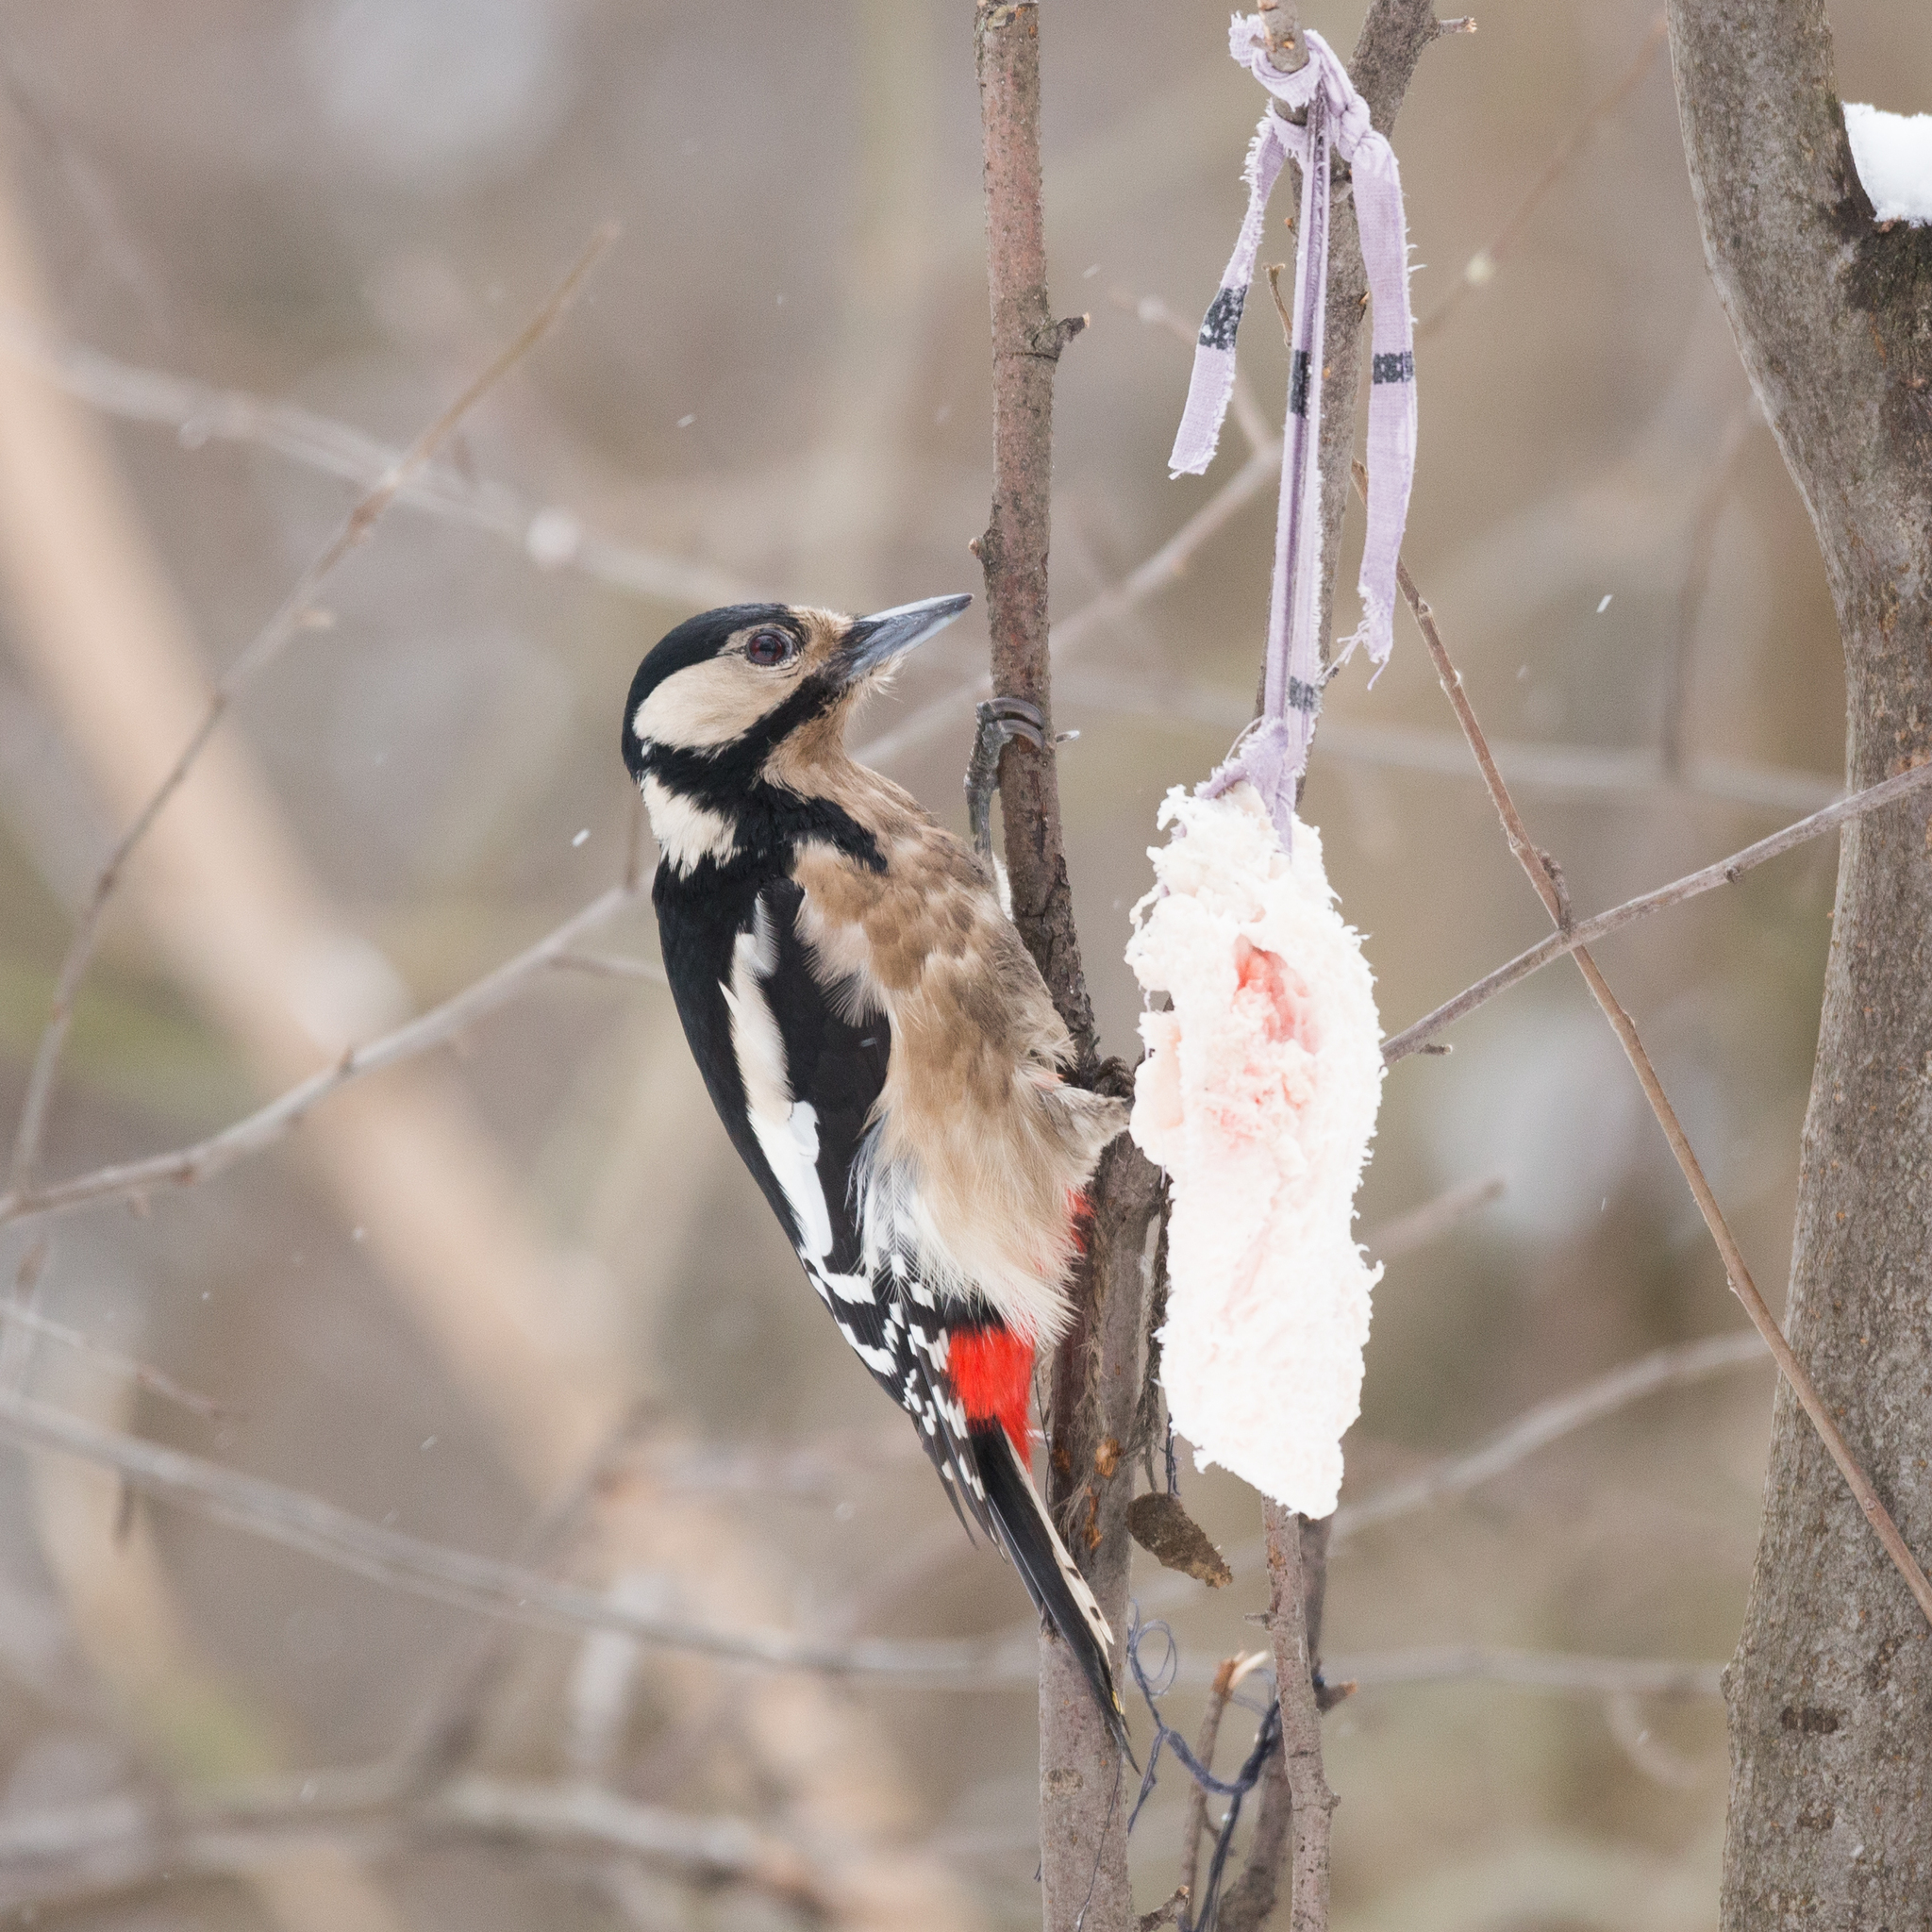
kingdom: Animalia
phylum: Chordata
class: Aves
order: Piciformes
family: Picidae
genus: Dendrocopos
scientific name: Dendrocopos major
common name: Great spotted woodpecker
